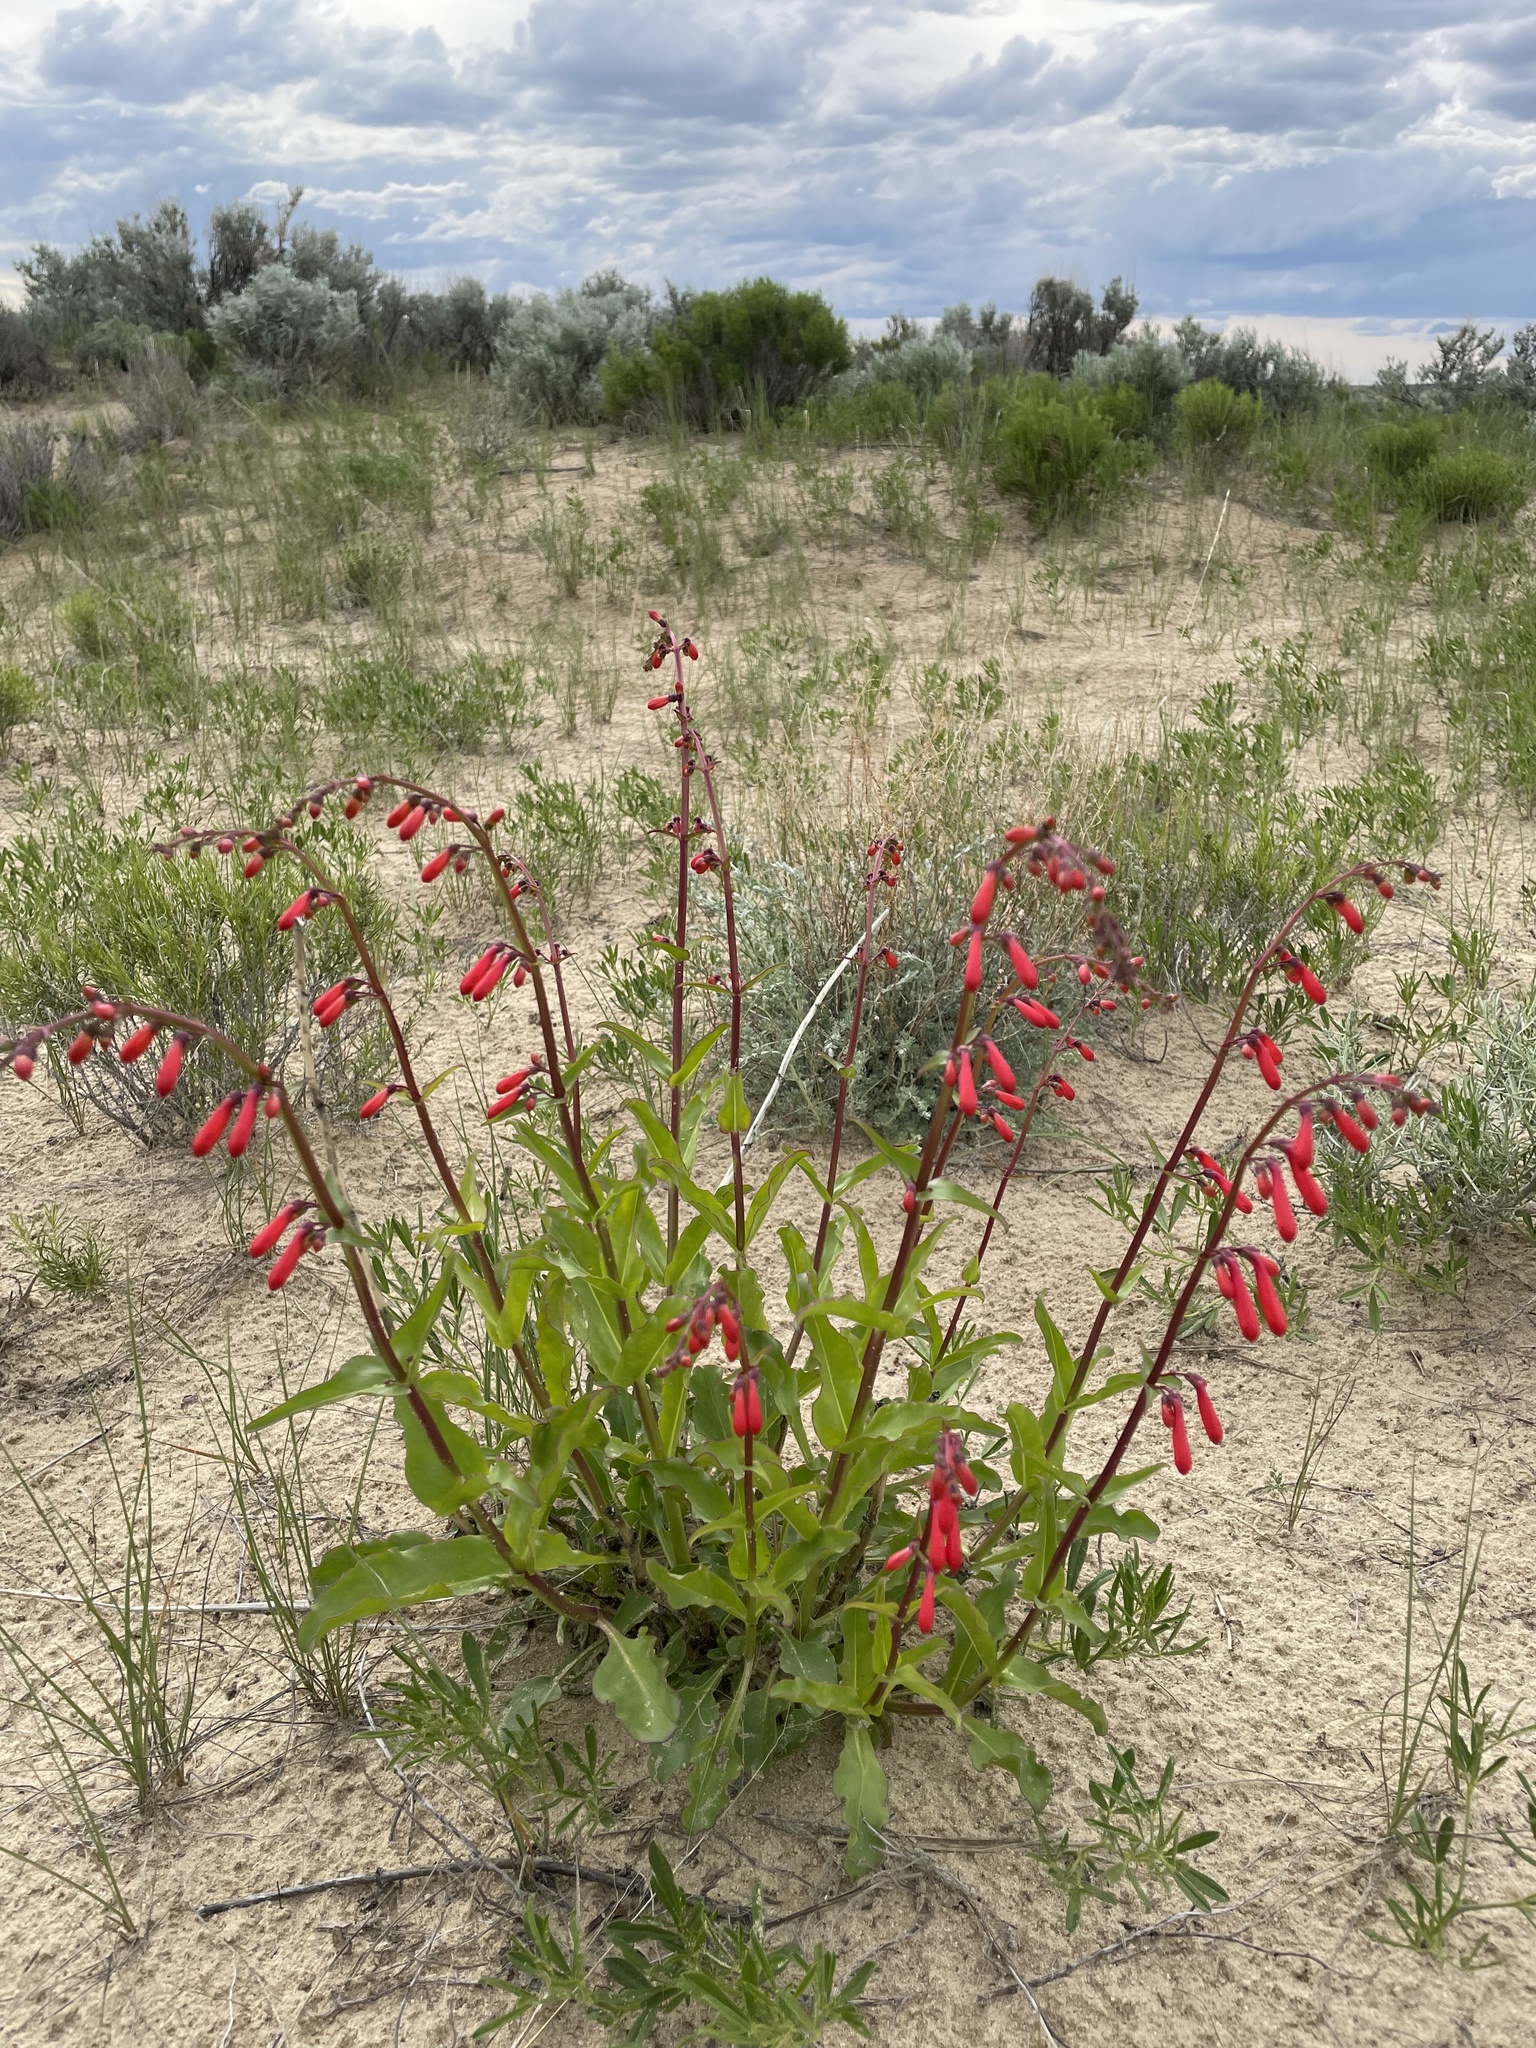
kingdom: Plantae
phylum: Tracheophyta
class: Magnoliopsida
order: Lamiales
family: Plantaginaceae
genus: Penstemon
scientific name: Penstemon eatonii
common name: Eaton's penstemon
